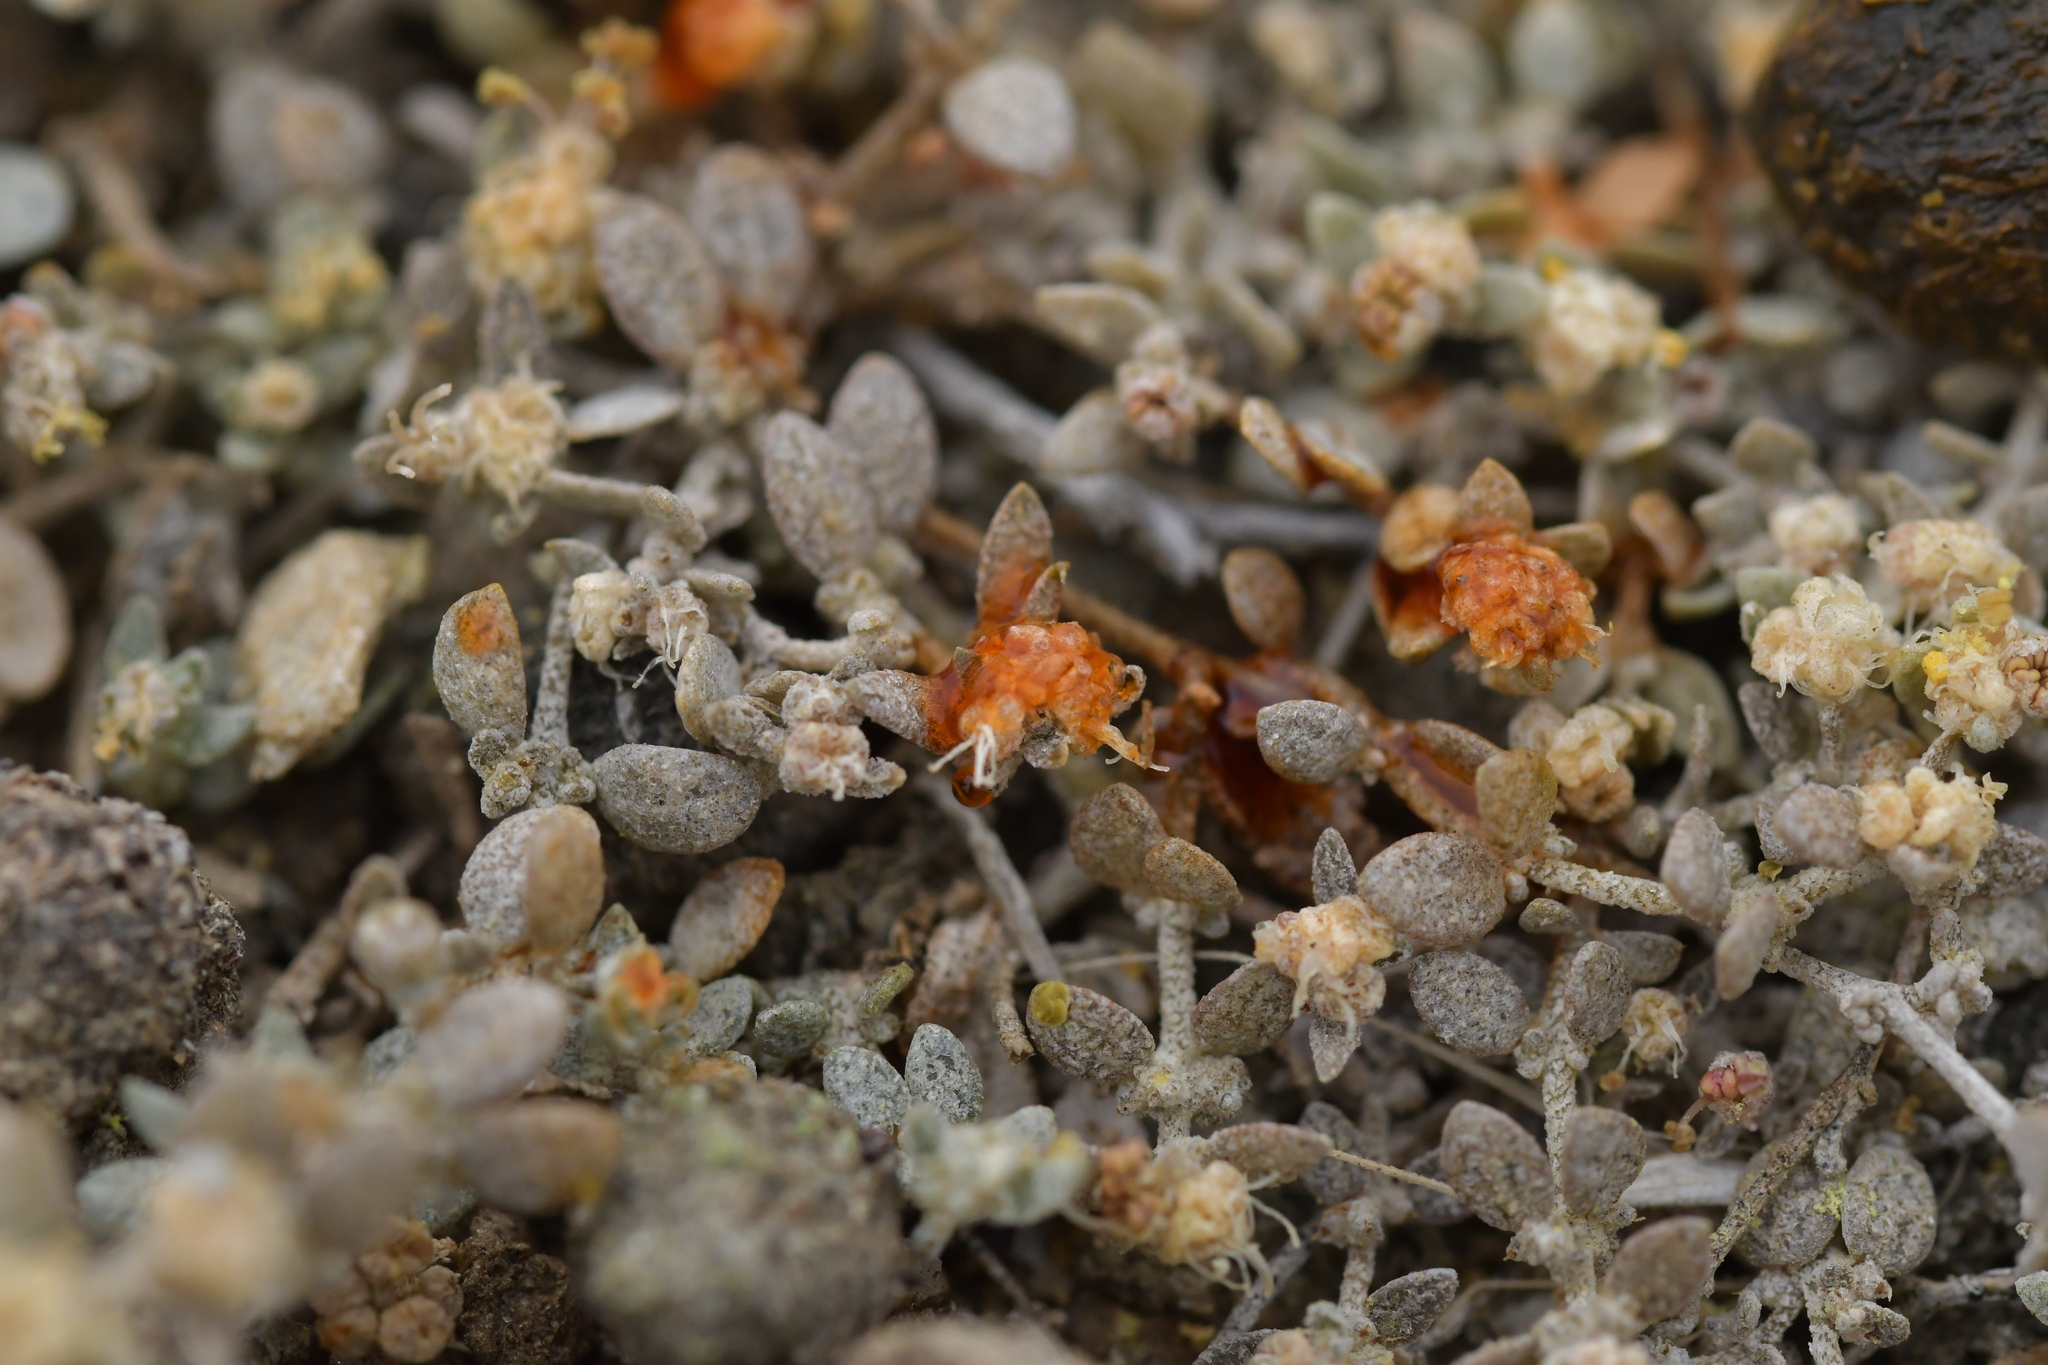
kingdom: Plantae
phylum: Tracheophyta
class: Magnoliopsida
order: Caryophyllales
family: Amaranthaceae
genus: Atriplex
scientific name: Atriplex buchananii
